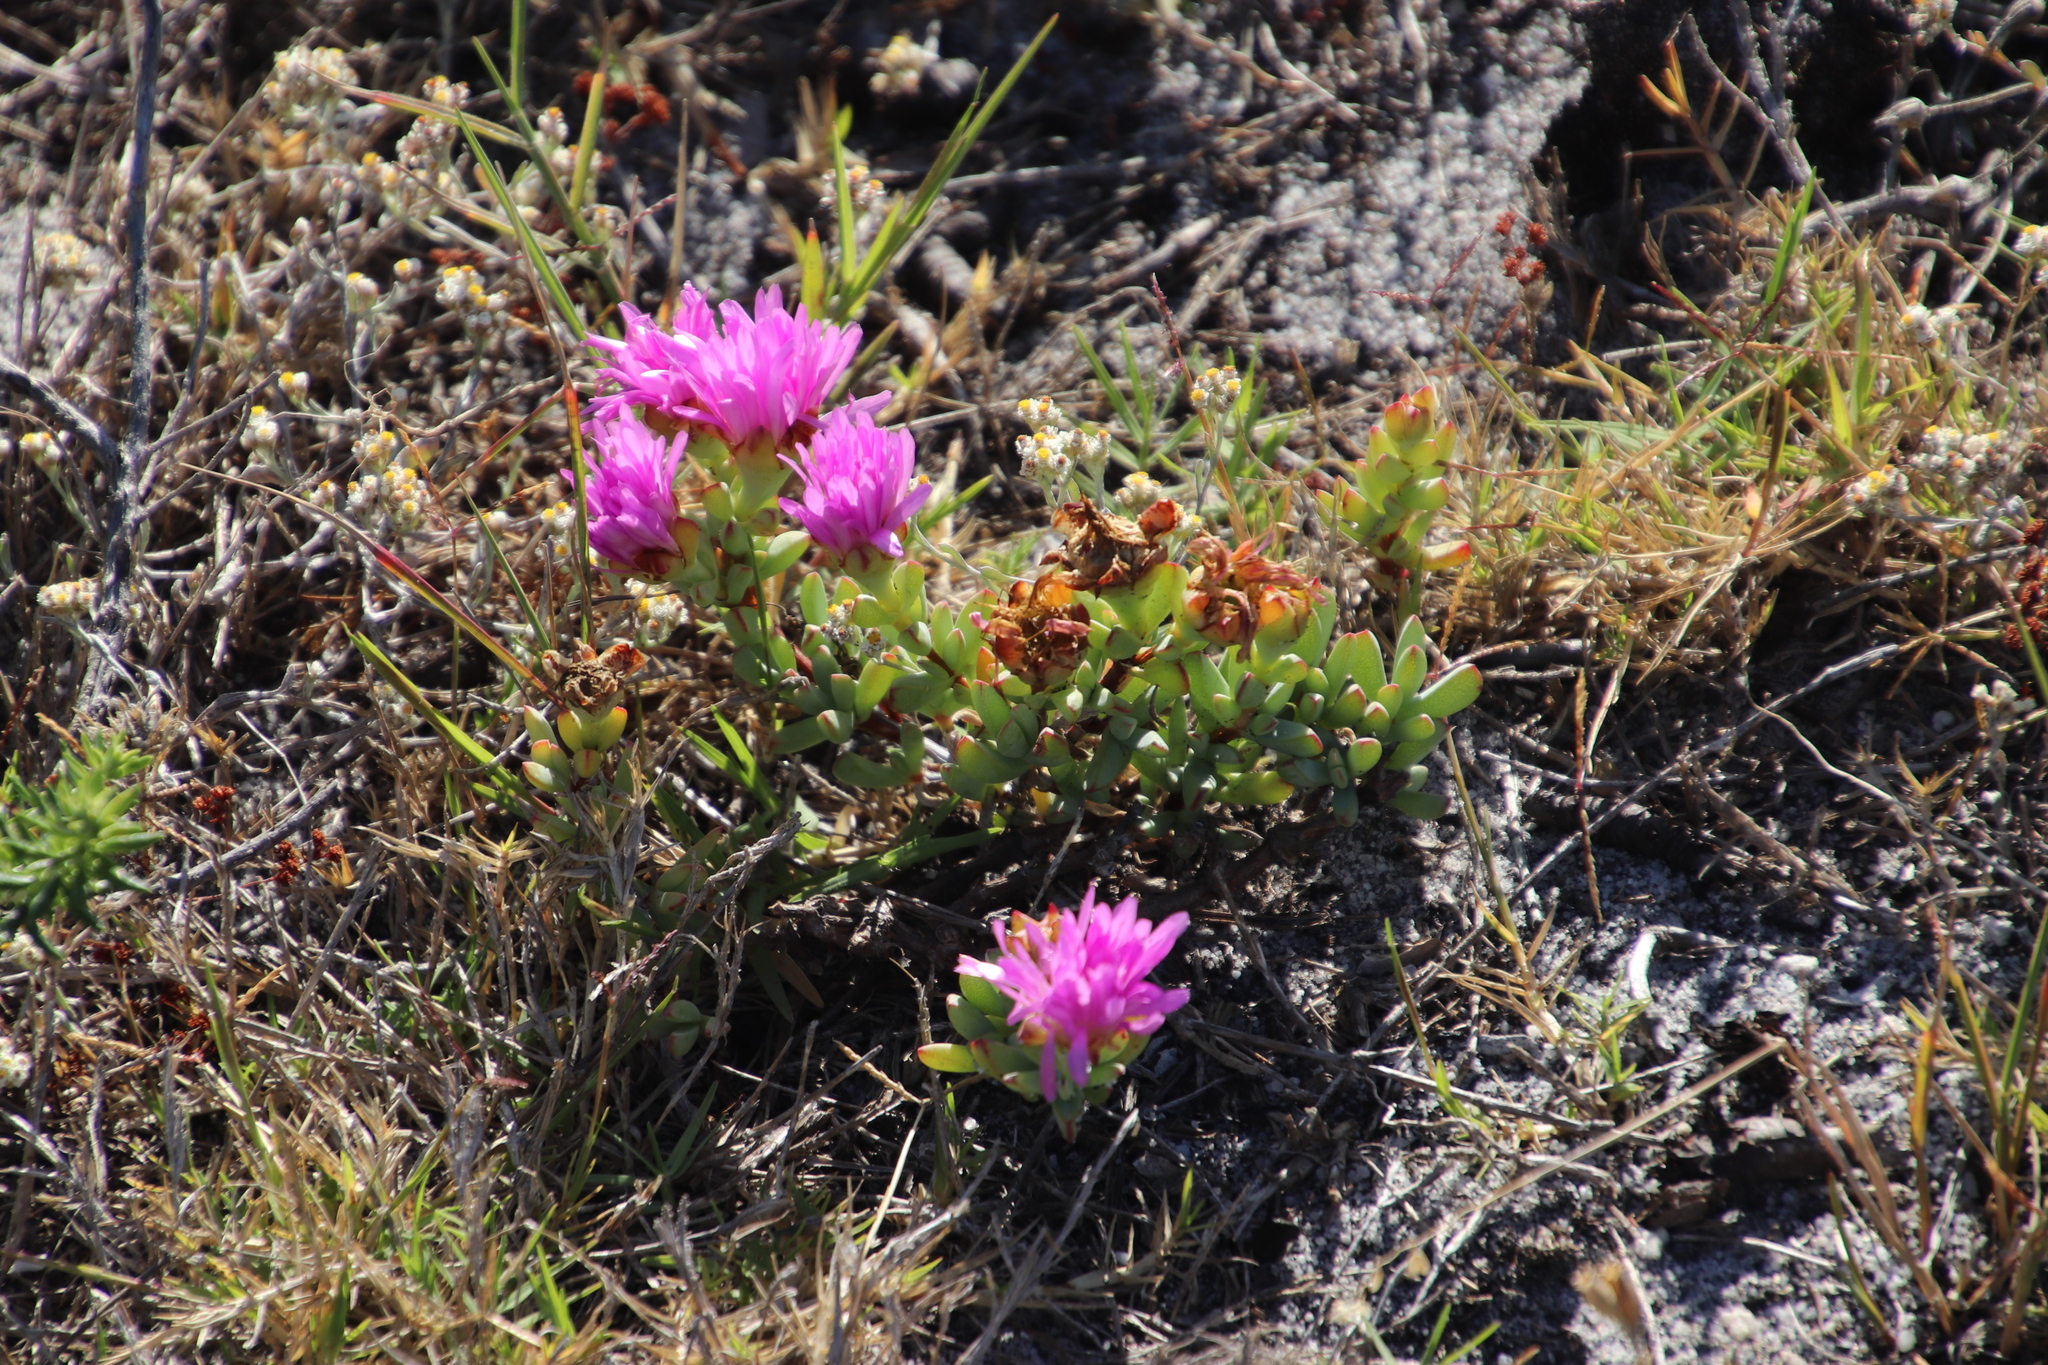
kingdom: Plantae
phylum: Tracheophyta
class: Magnoliopsida
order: Caryophyllales
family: Aizoaceae
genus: Oscularia
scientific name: Oscularia falciformis
